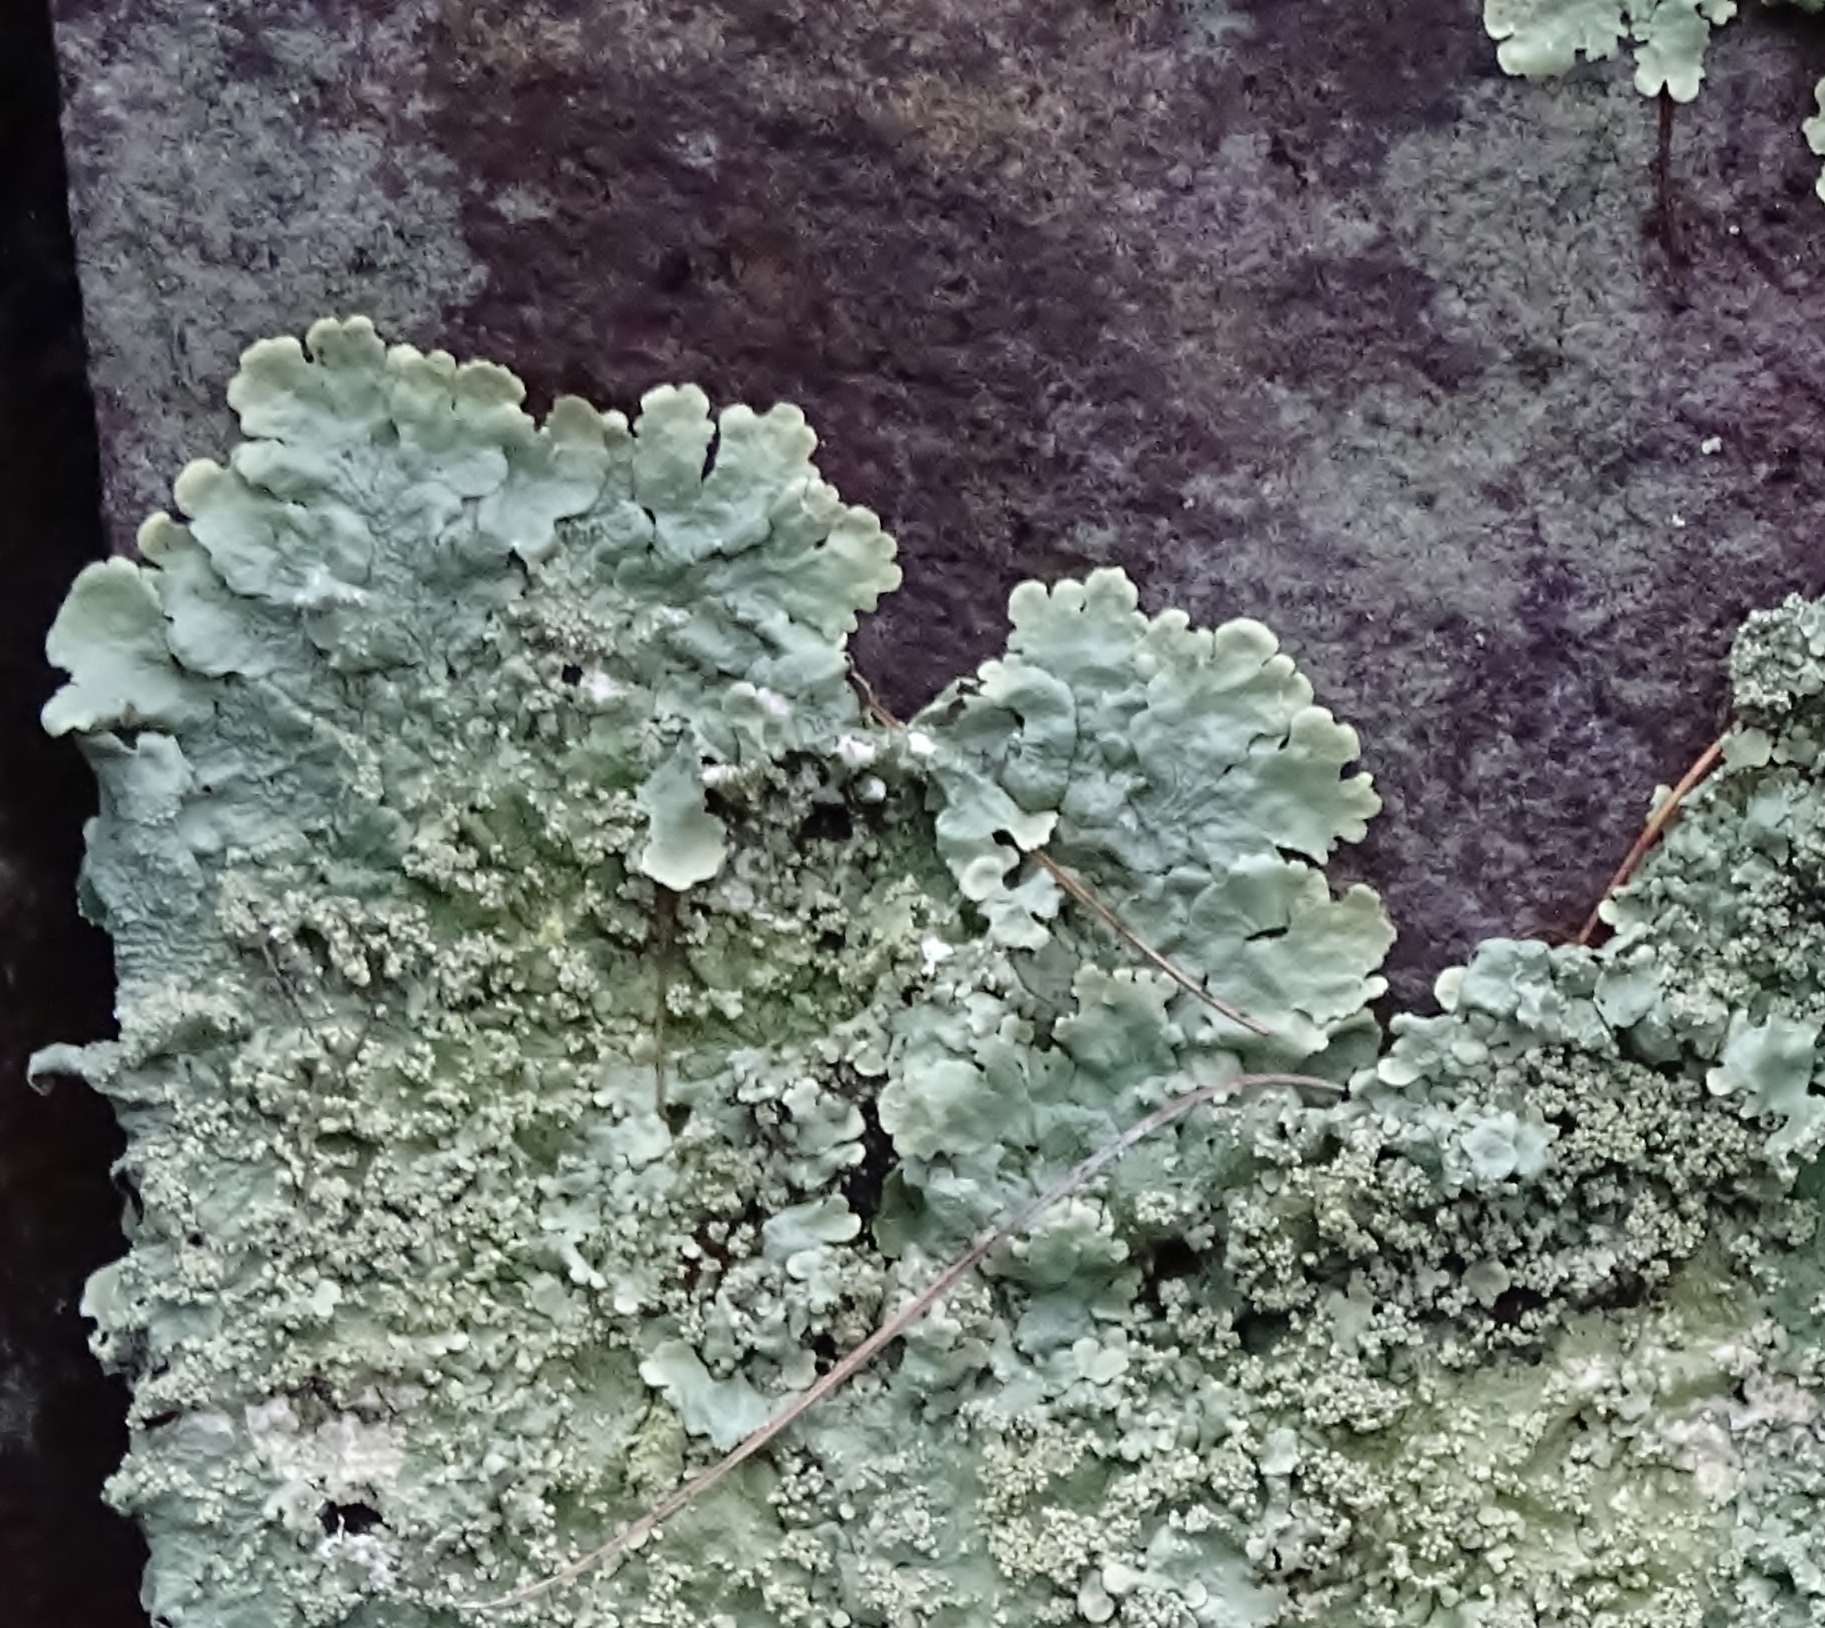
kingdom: Fungi
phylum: Ascomycota
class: Lecanoromycetes
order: Lecanorales
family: Parmeliaceae
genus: Flavoparmelia
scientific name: Flavoparmelia baltimorensis
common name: Rock greenshield
